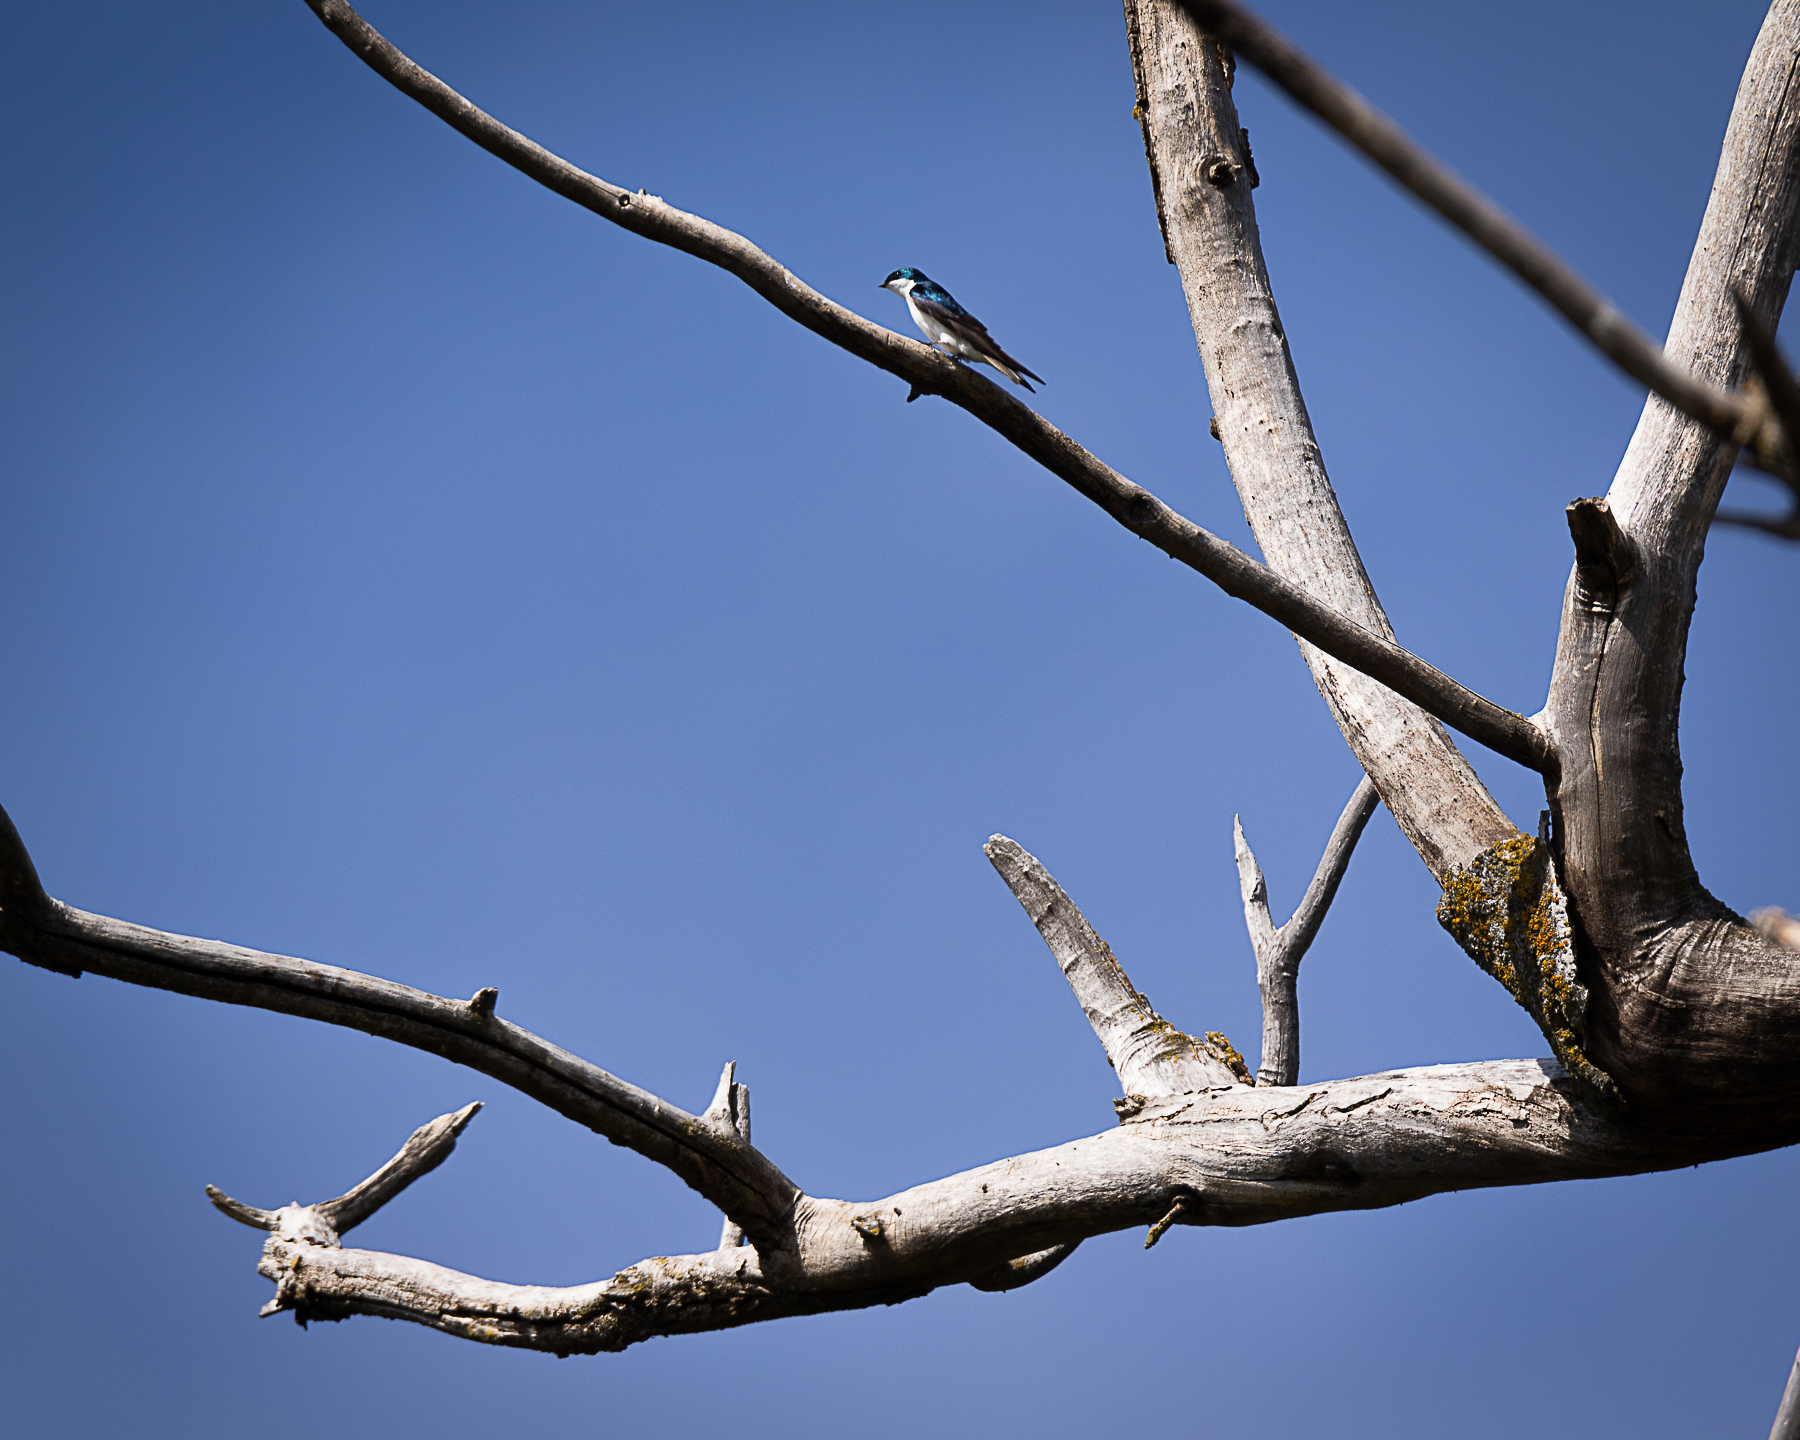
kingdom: Animalia
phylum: Chordata
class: Aves
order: Passeriformes
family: Hirundinidae
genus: Tachycineta
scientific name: Tachycineta bicolor
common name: Tree swallow
